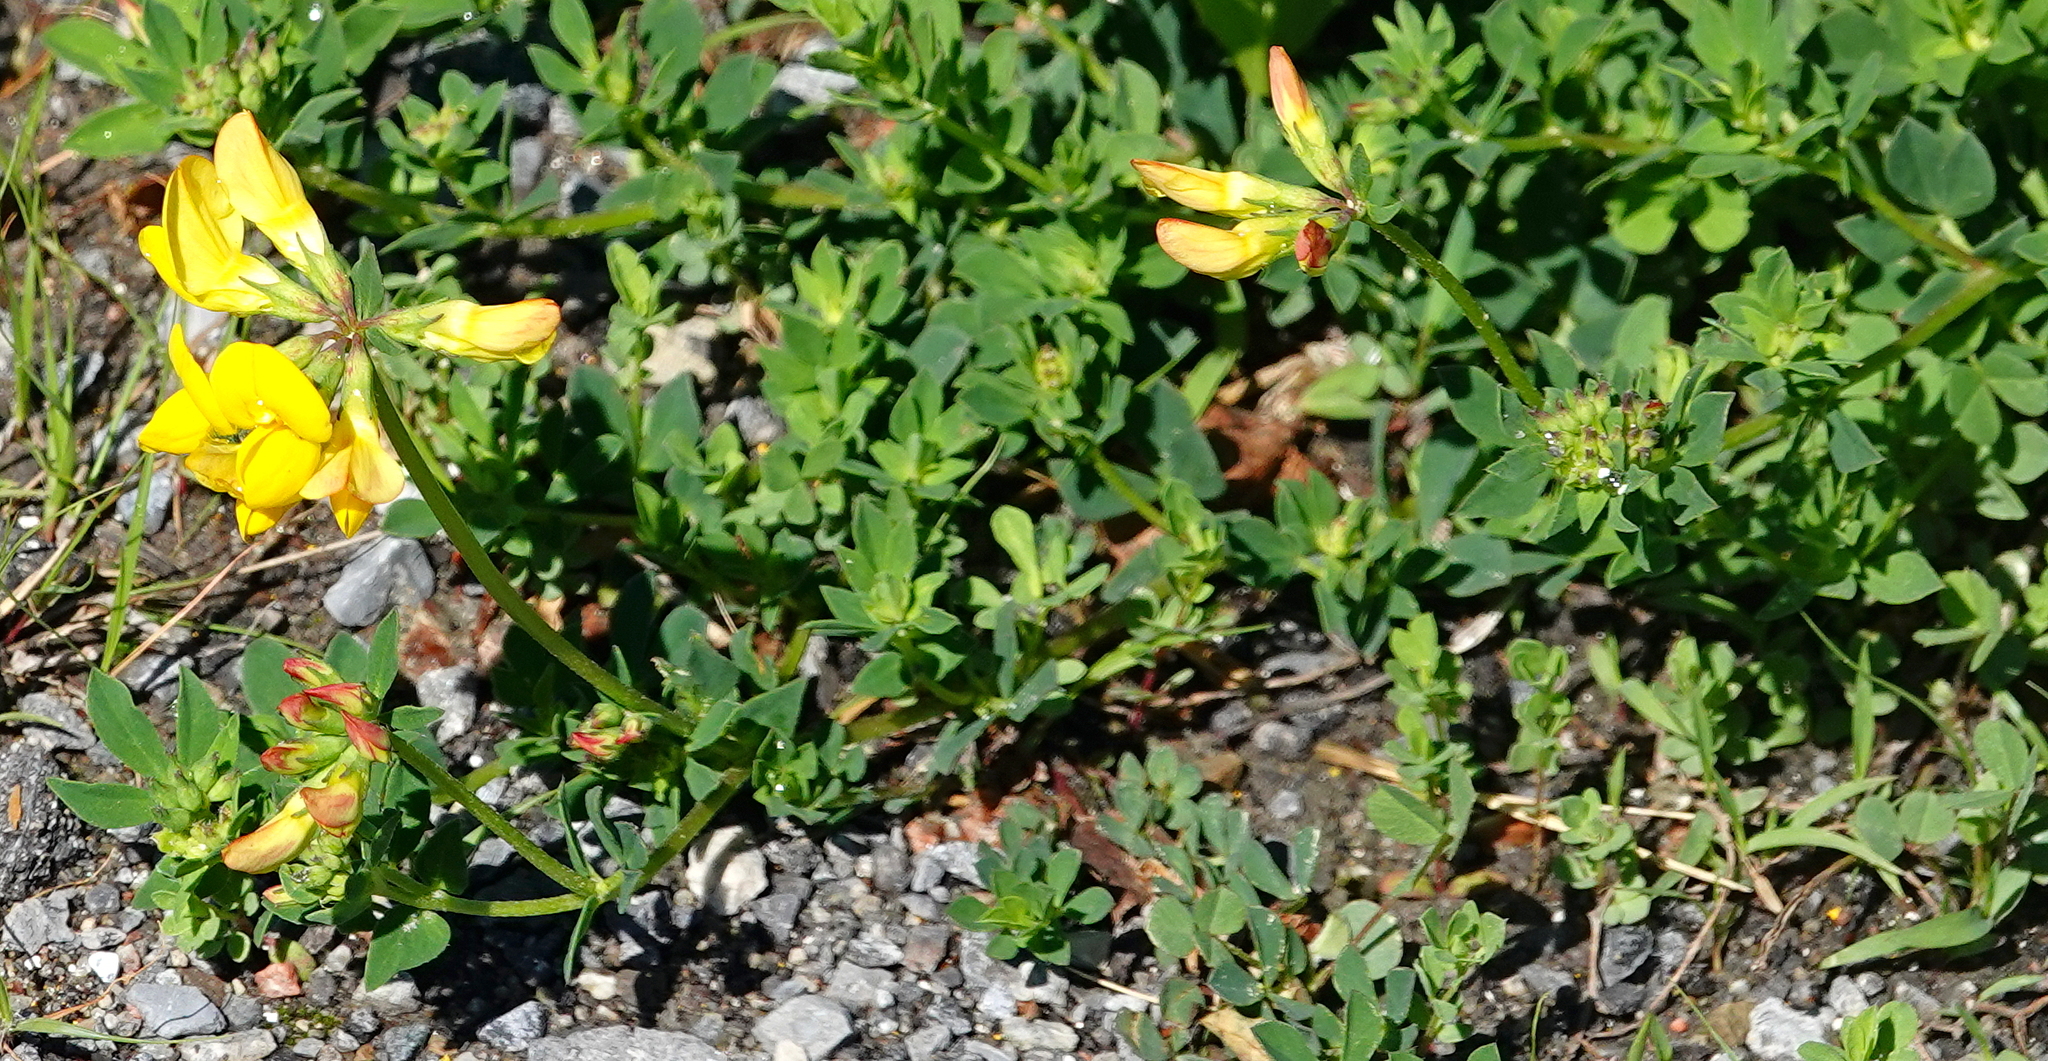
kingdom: Plantae
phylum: Tracheophyta
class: Magnoliopsida
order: Fabales
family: Fabaceae
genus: Lotus
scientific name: Lotus corniculatus
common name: Common bird's-foot-trefoil
